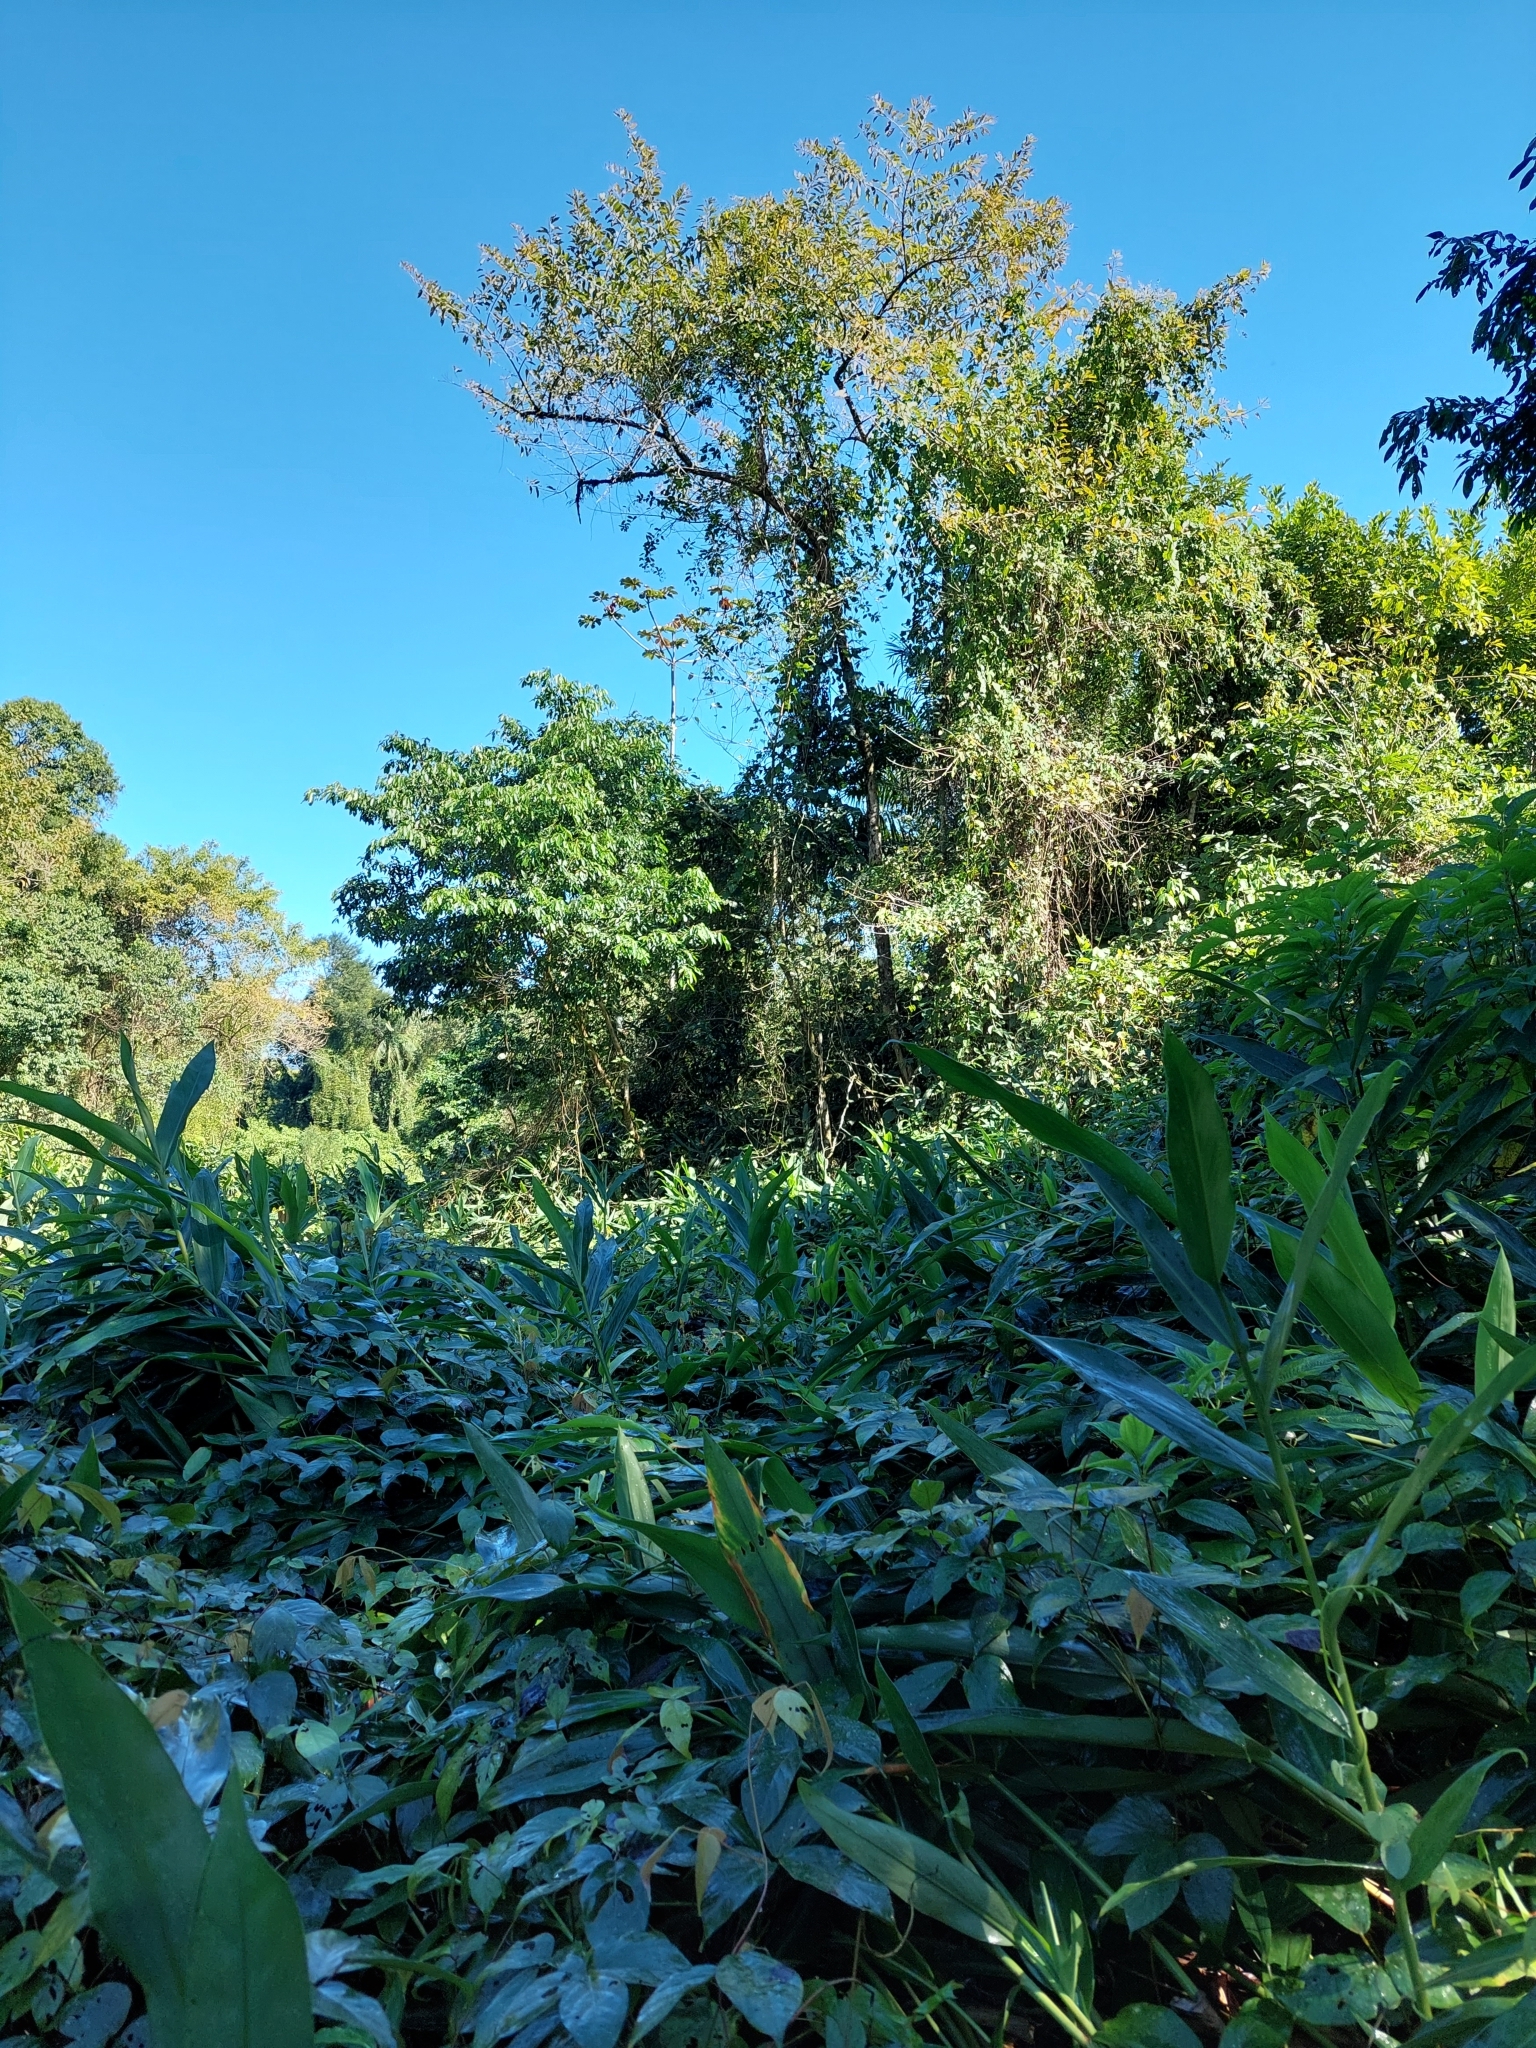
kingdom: Plantae
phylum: Tracheophyta
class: Liliopsida
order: Zingiberales
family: Zingiberaceae
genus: Hedychium
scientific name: Hedychium coronarium
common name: White garland-lily
